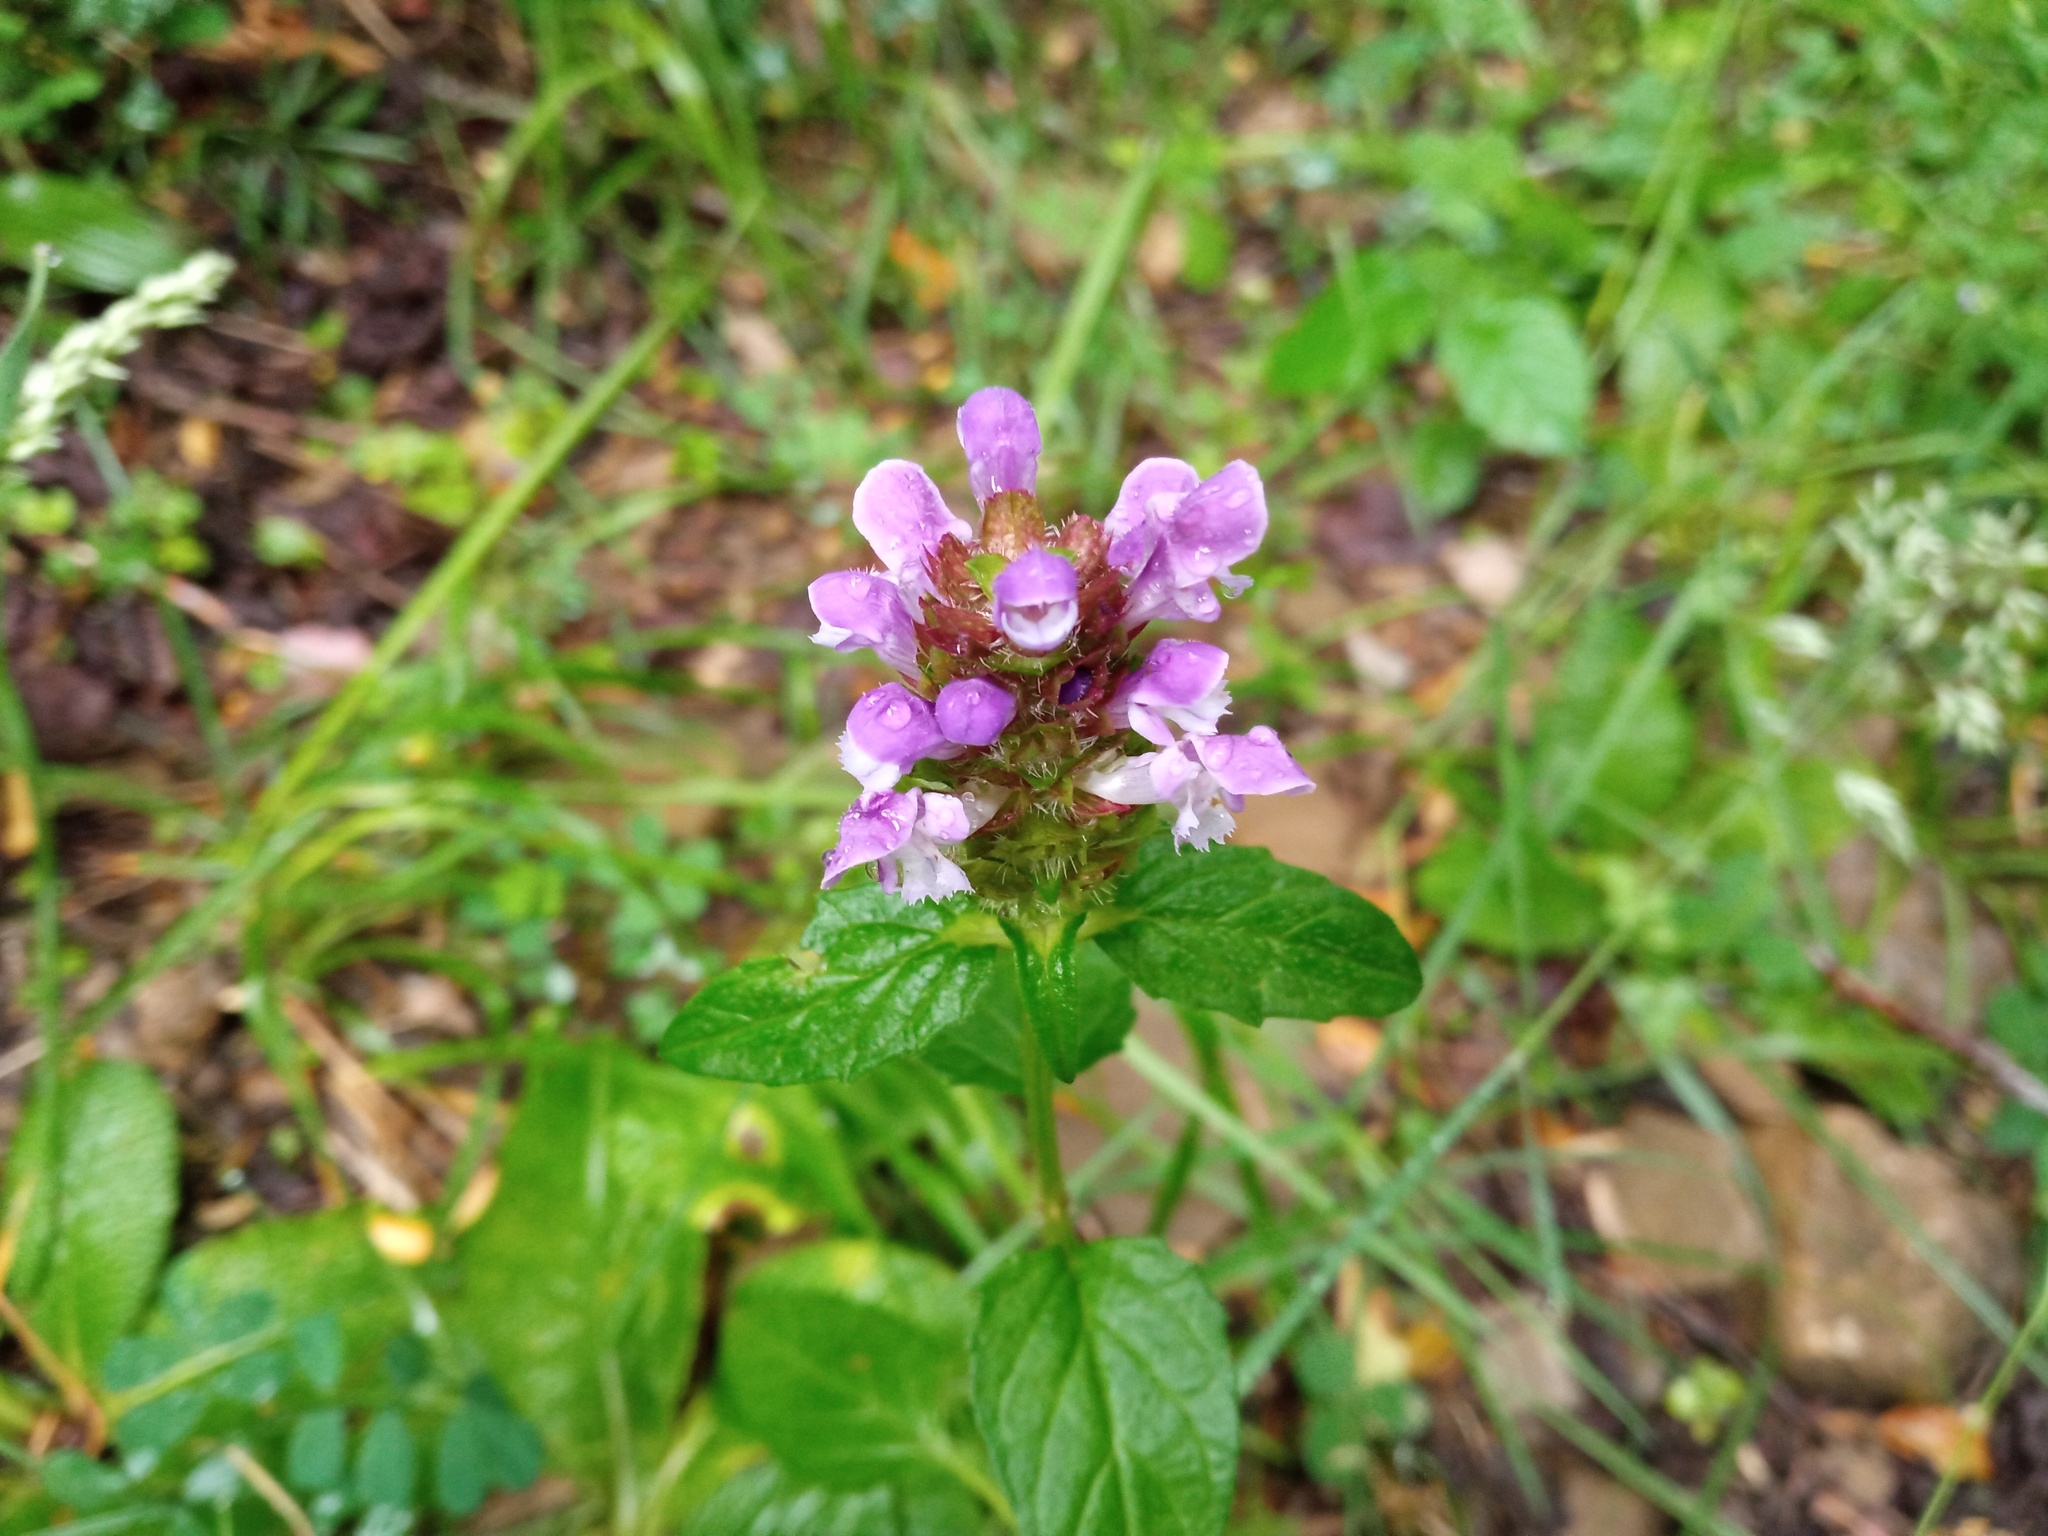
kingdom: Plantae
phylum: Tracheophyta
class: Magnoliopsida
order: Lamiales
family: Lamiaceae
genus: Prunella
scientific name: Prunella vulgaris
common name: Heal-all
